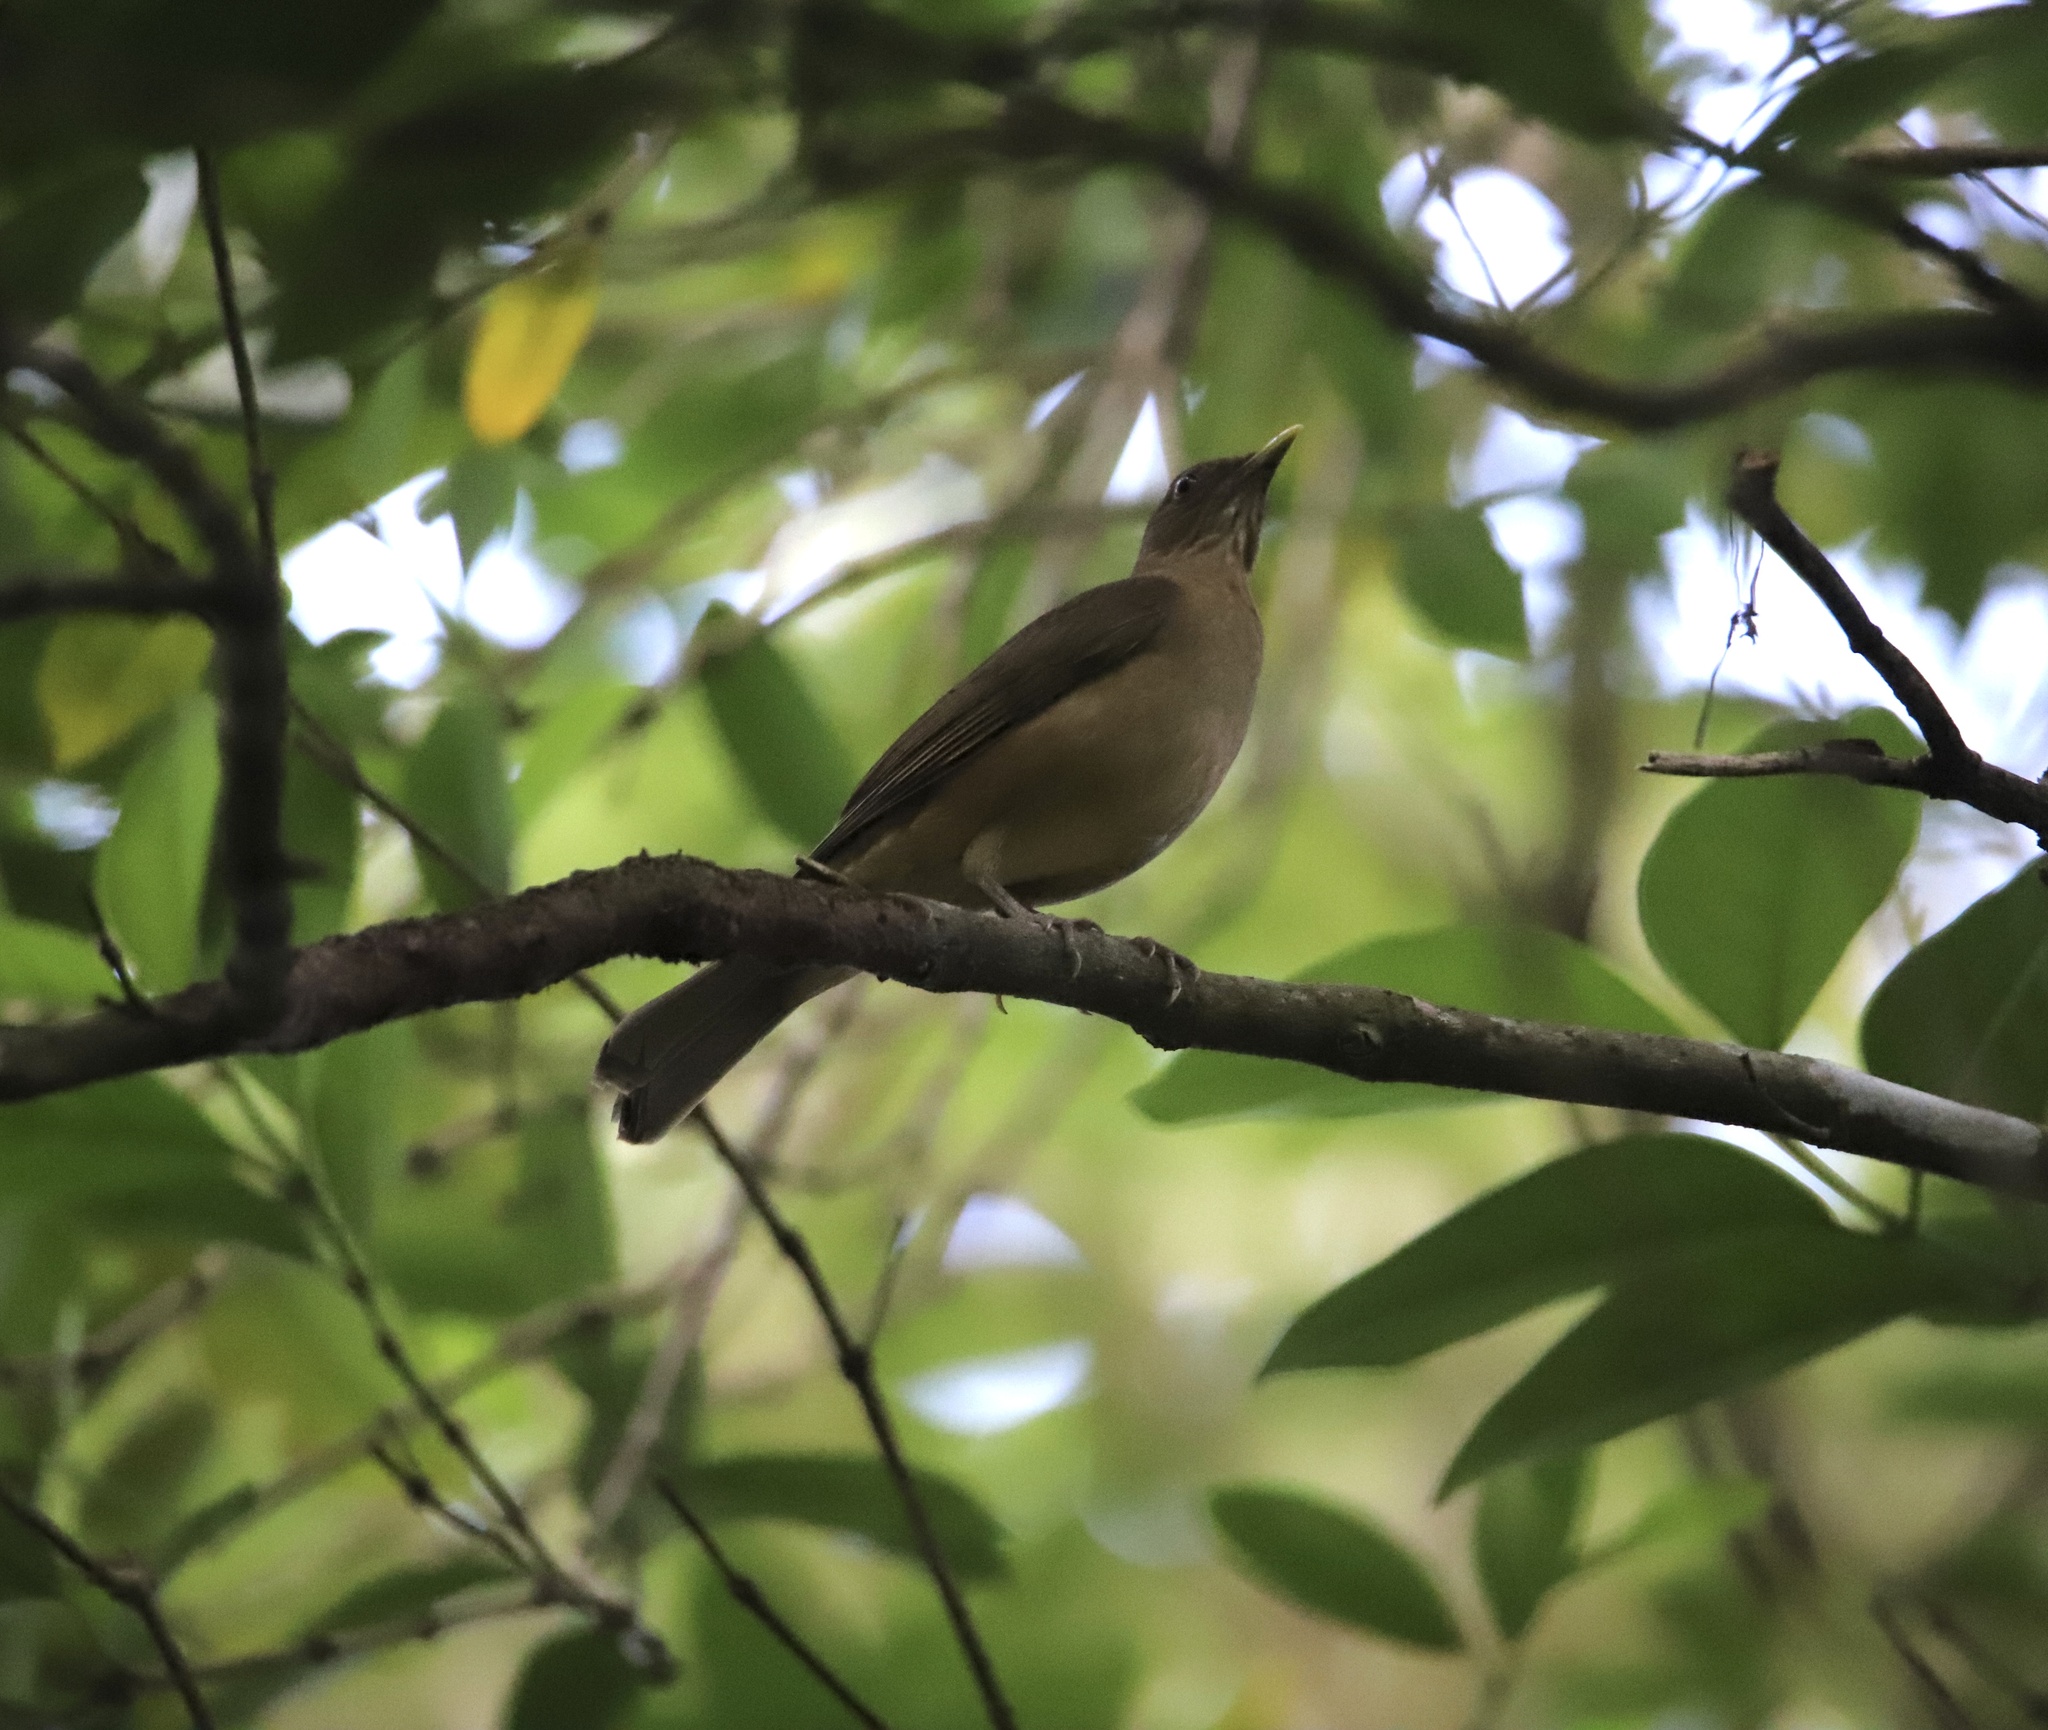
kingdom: Animalia
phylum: Chordata
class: Aves
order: Passeriformes
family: Turdidae
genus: Turdus
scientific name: Turdus grayi
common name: Clay-colored thrush
